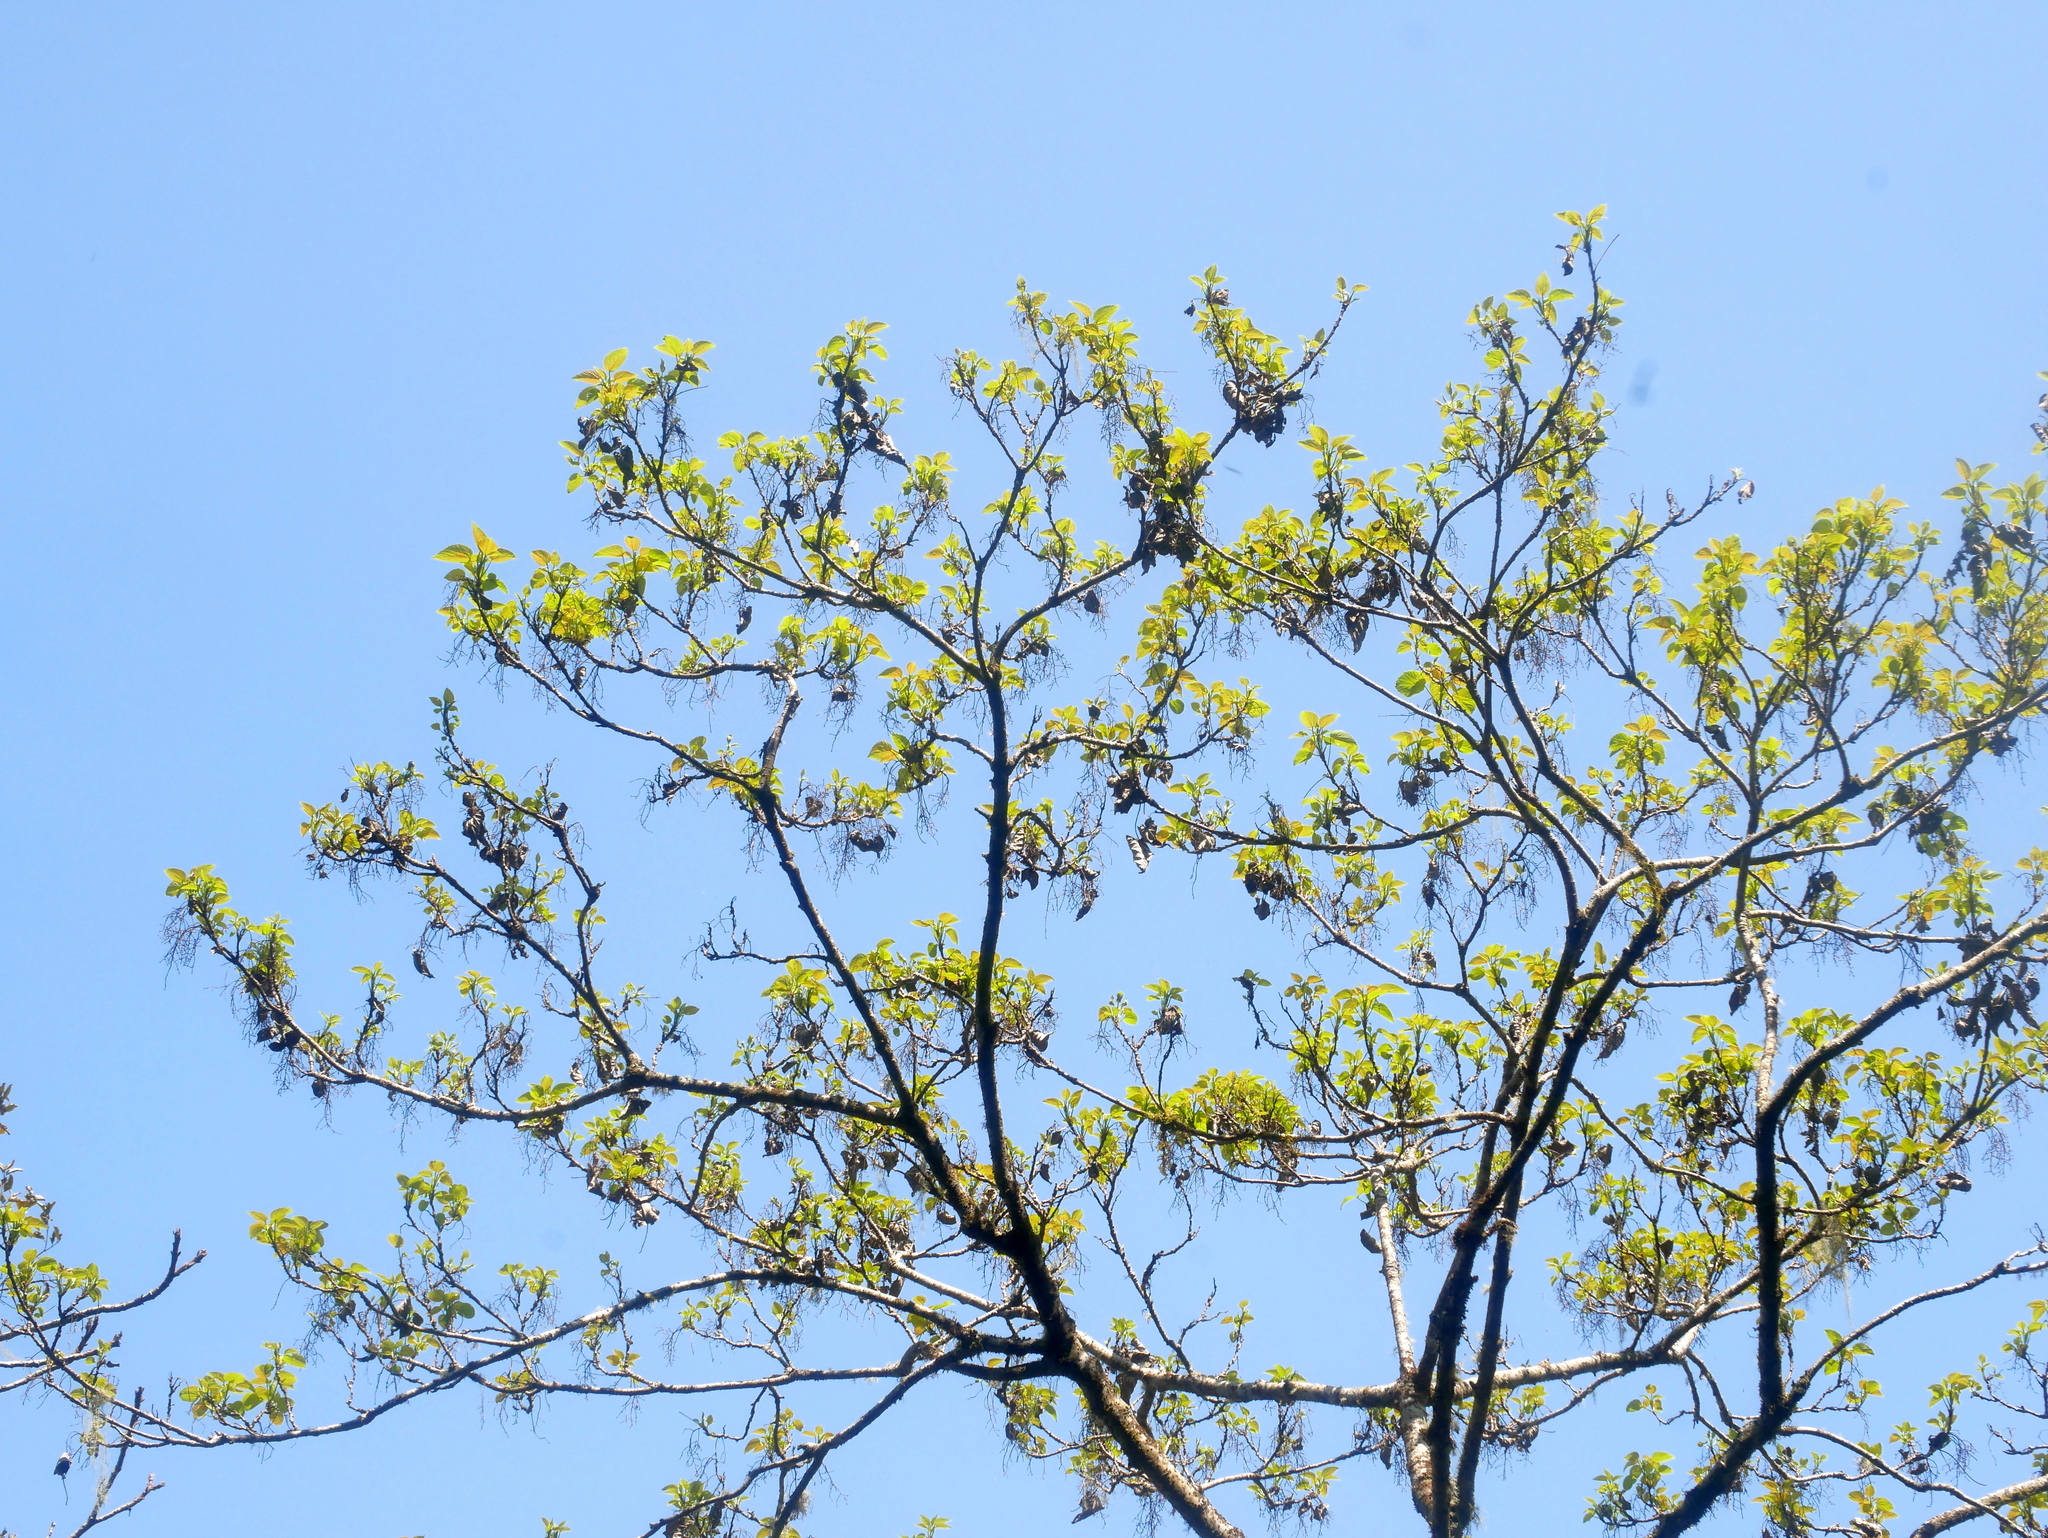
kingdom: Plantae
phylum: Tracheophyta
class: Magnoliopsida
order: Malpighiales
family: Salicaceae
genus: Idesia
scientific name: Idesia polycarpa
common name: Idesia tree
